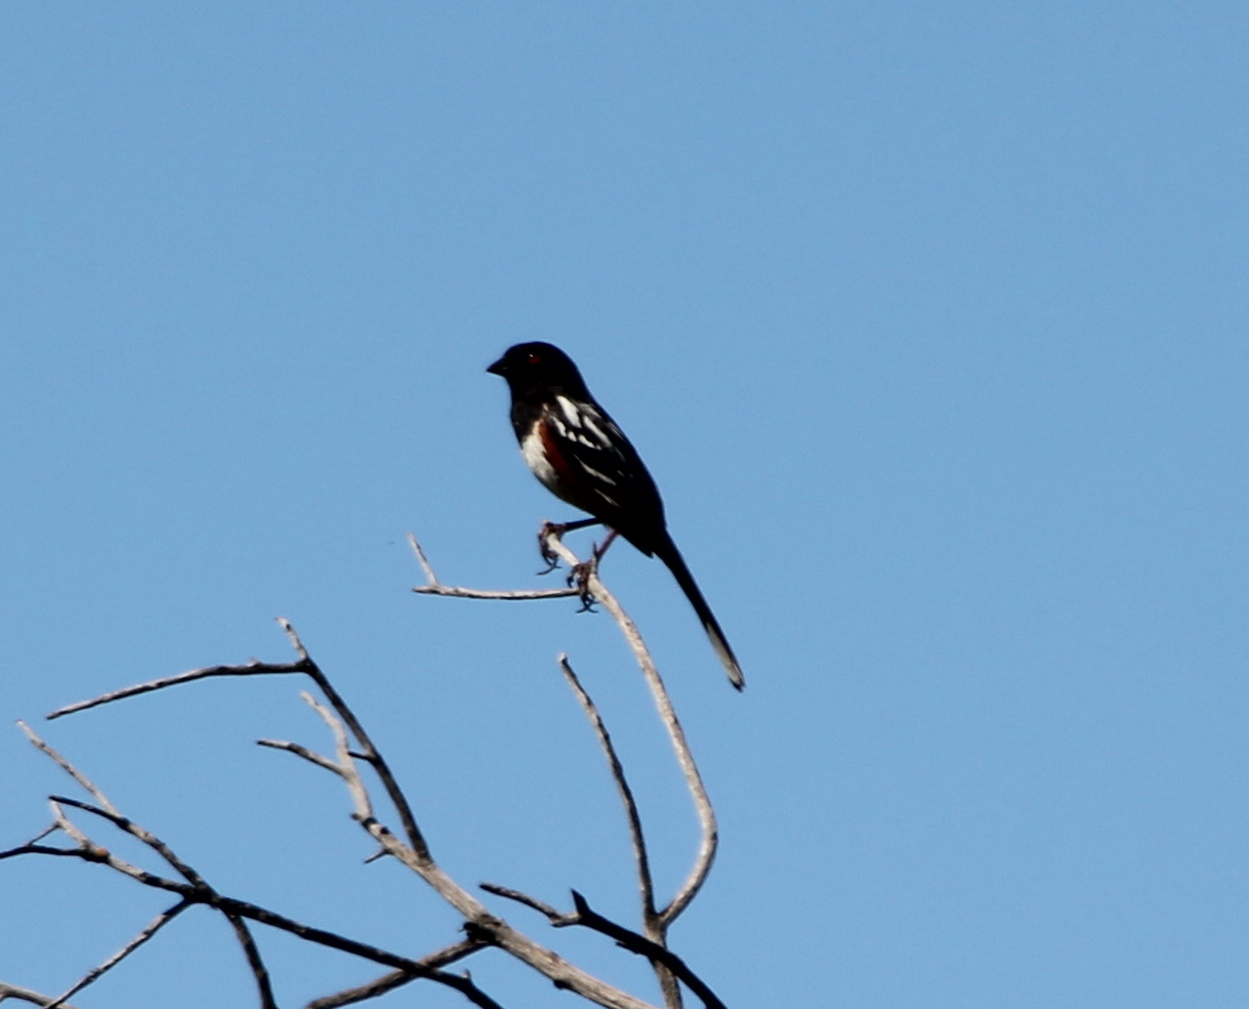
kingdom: Animalia
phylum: Chordata
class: Aves
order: Passeriformes
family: Passerellidae
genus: Pipilo
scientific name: Pipilo maculatus
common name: Spotted towhee
